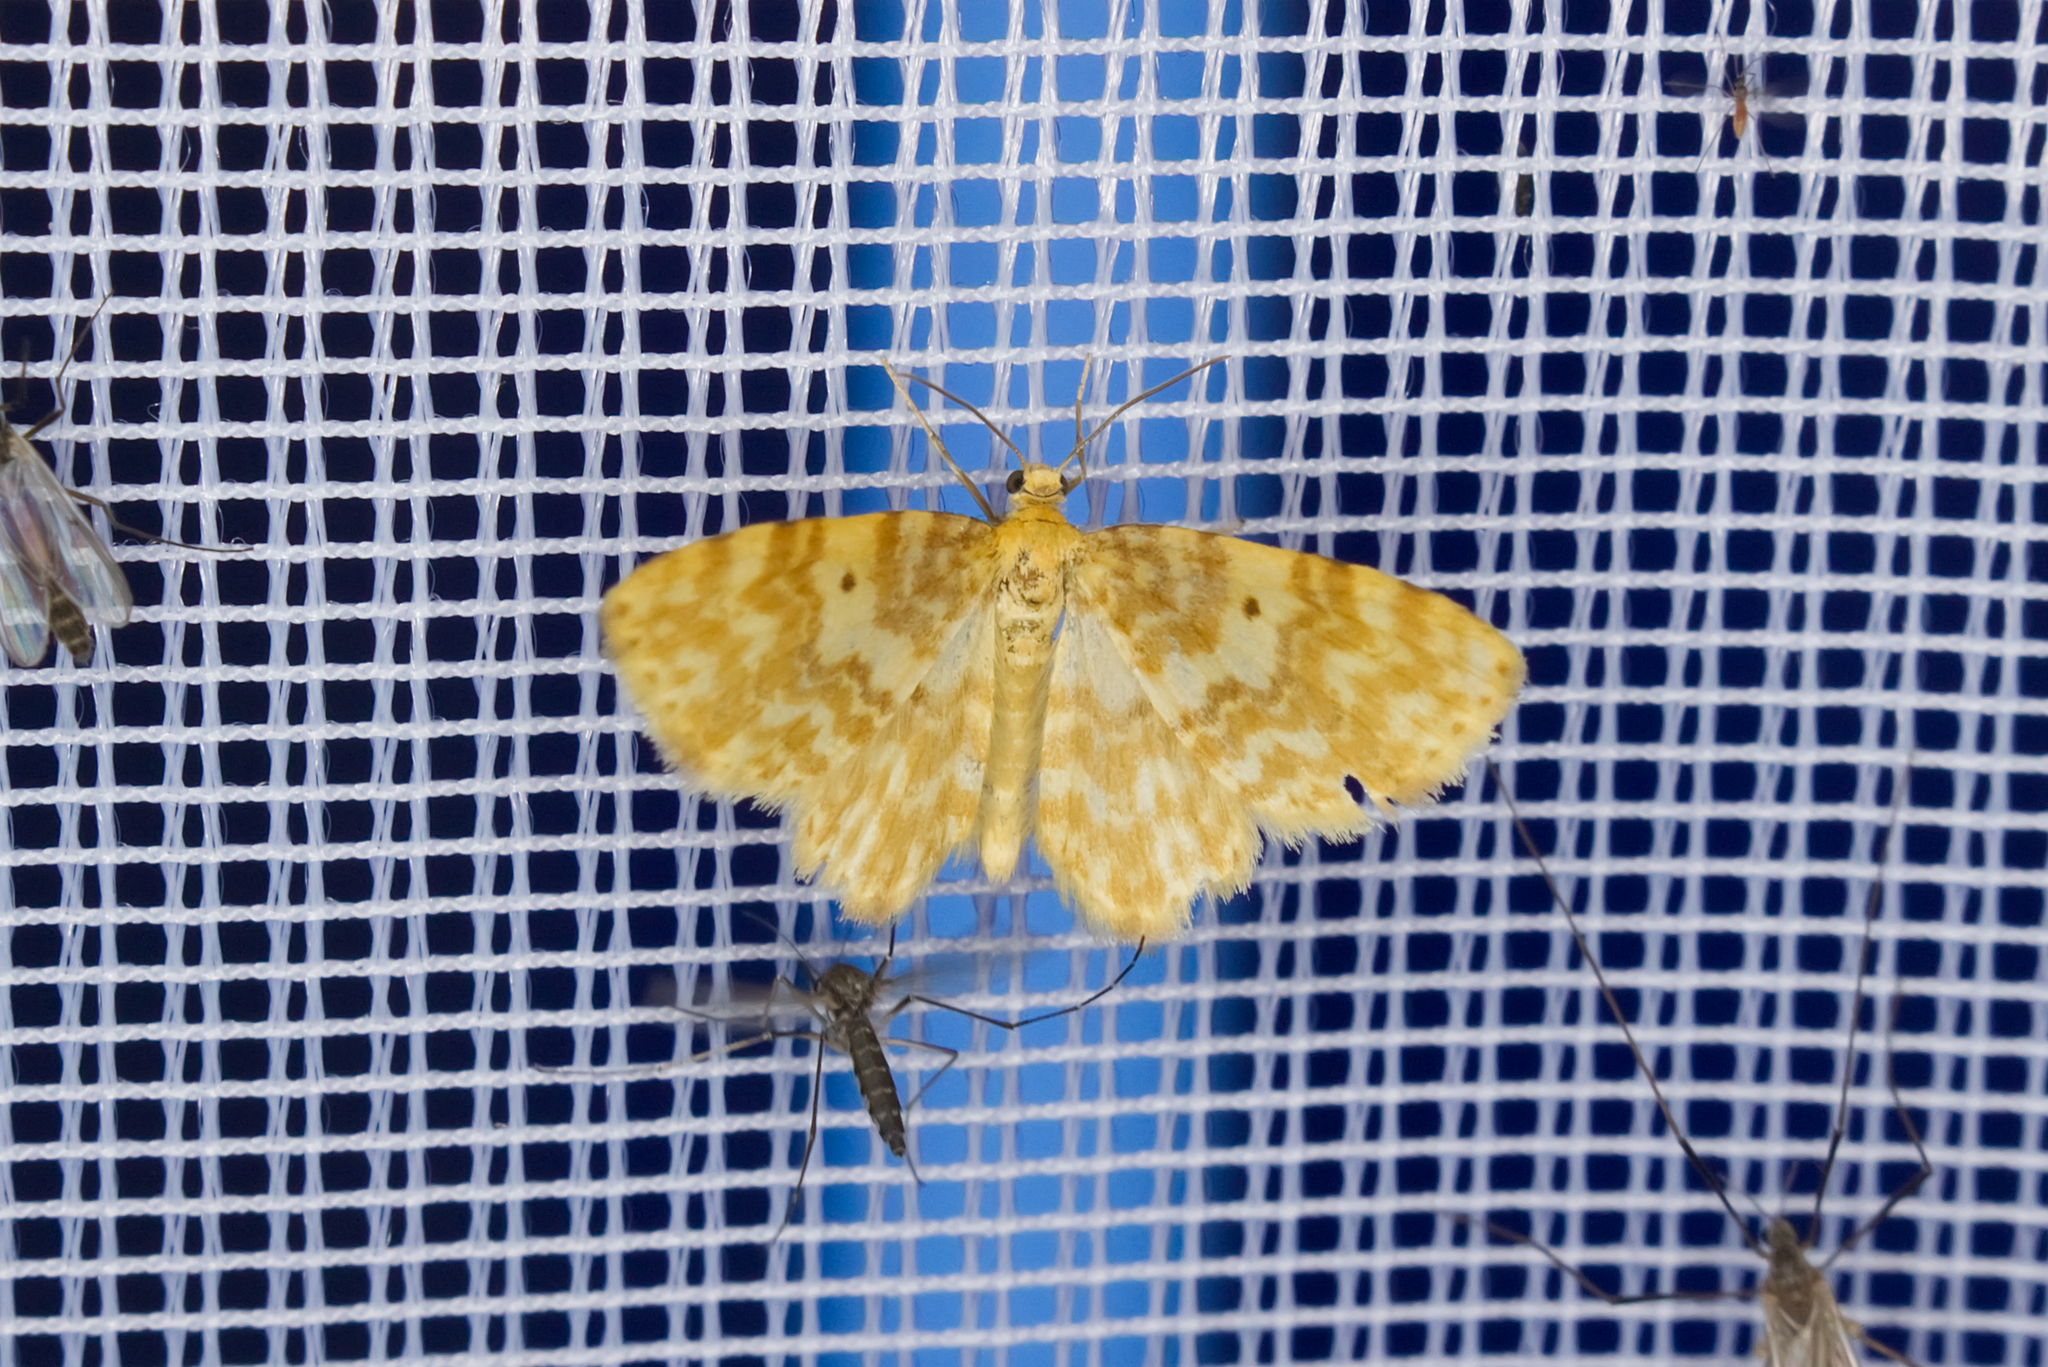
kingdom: Animalia
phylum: Arthropoda
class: Insecta
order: Lepidoptera
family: Geometridae
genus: Hydrelia
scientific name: Hydrelia flammeolaria
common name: Small yellow wave
